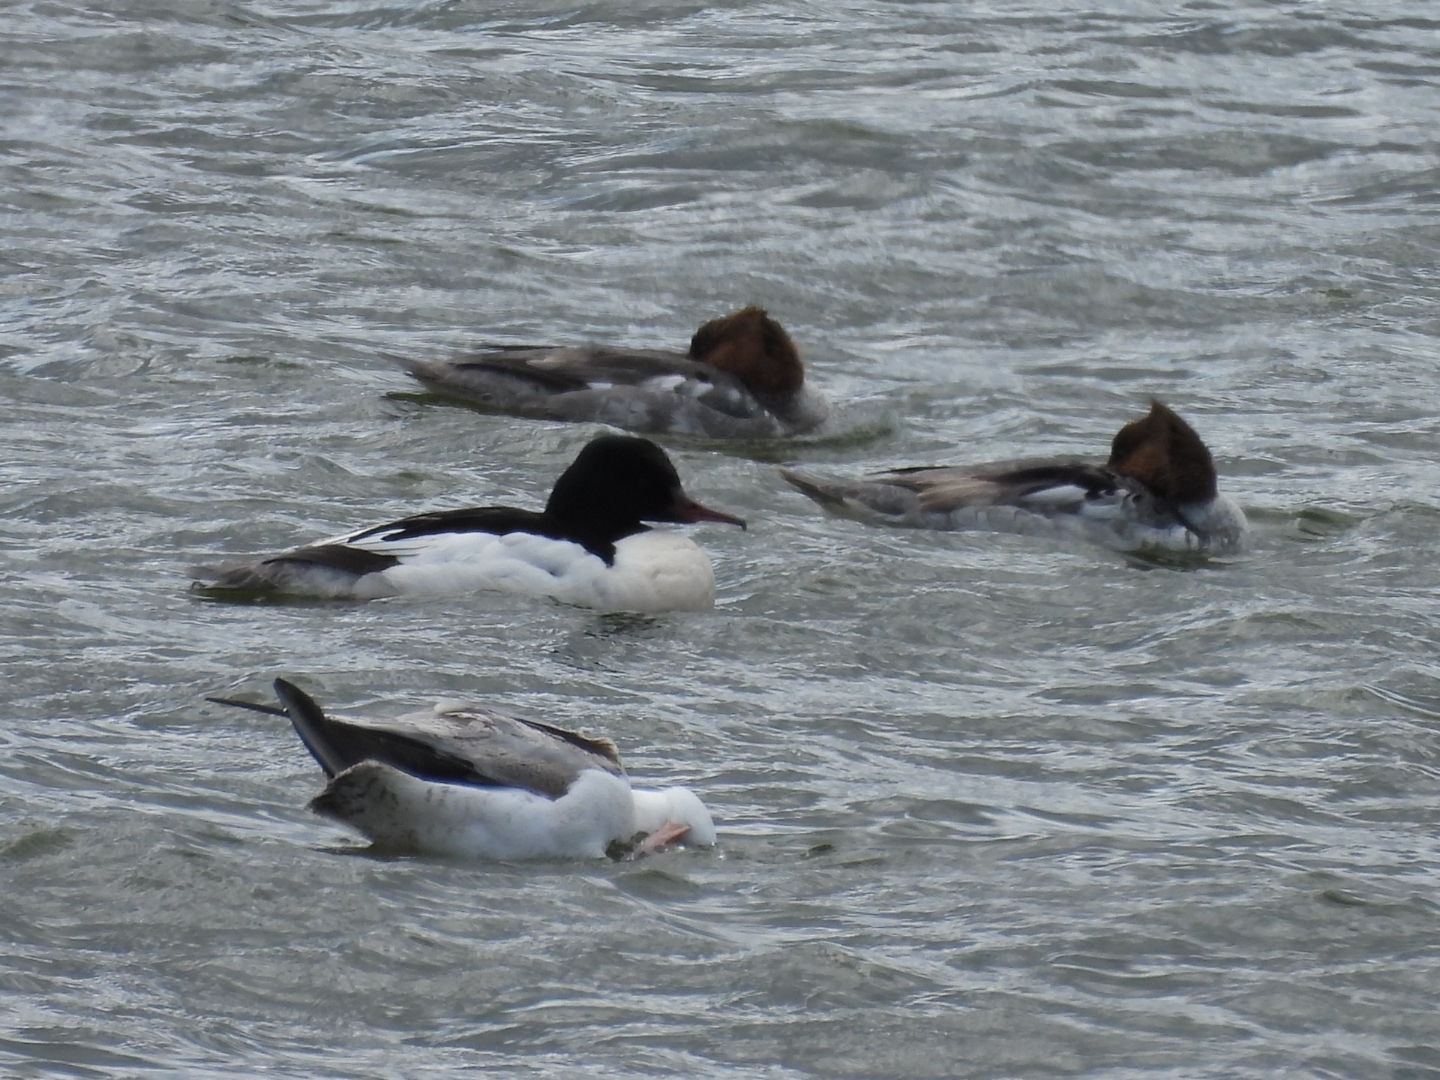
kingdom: Animalia
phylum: Chordata
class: Aves
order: Anseriformes
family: Anatidae
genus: Mergus
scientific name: Mergus merganser
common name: Common merganser
